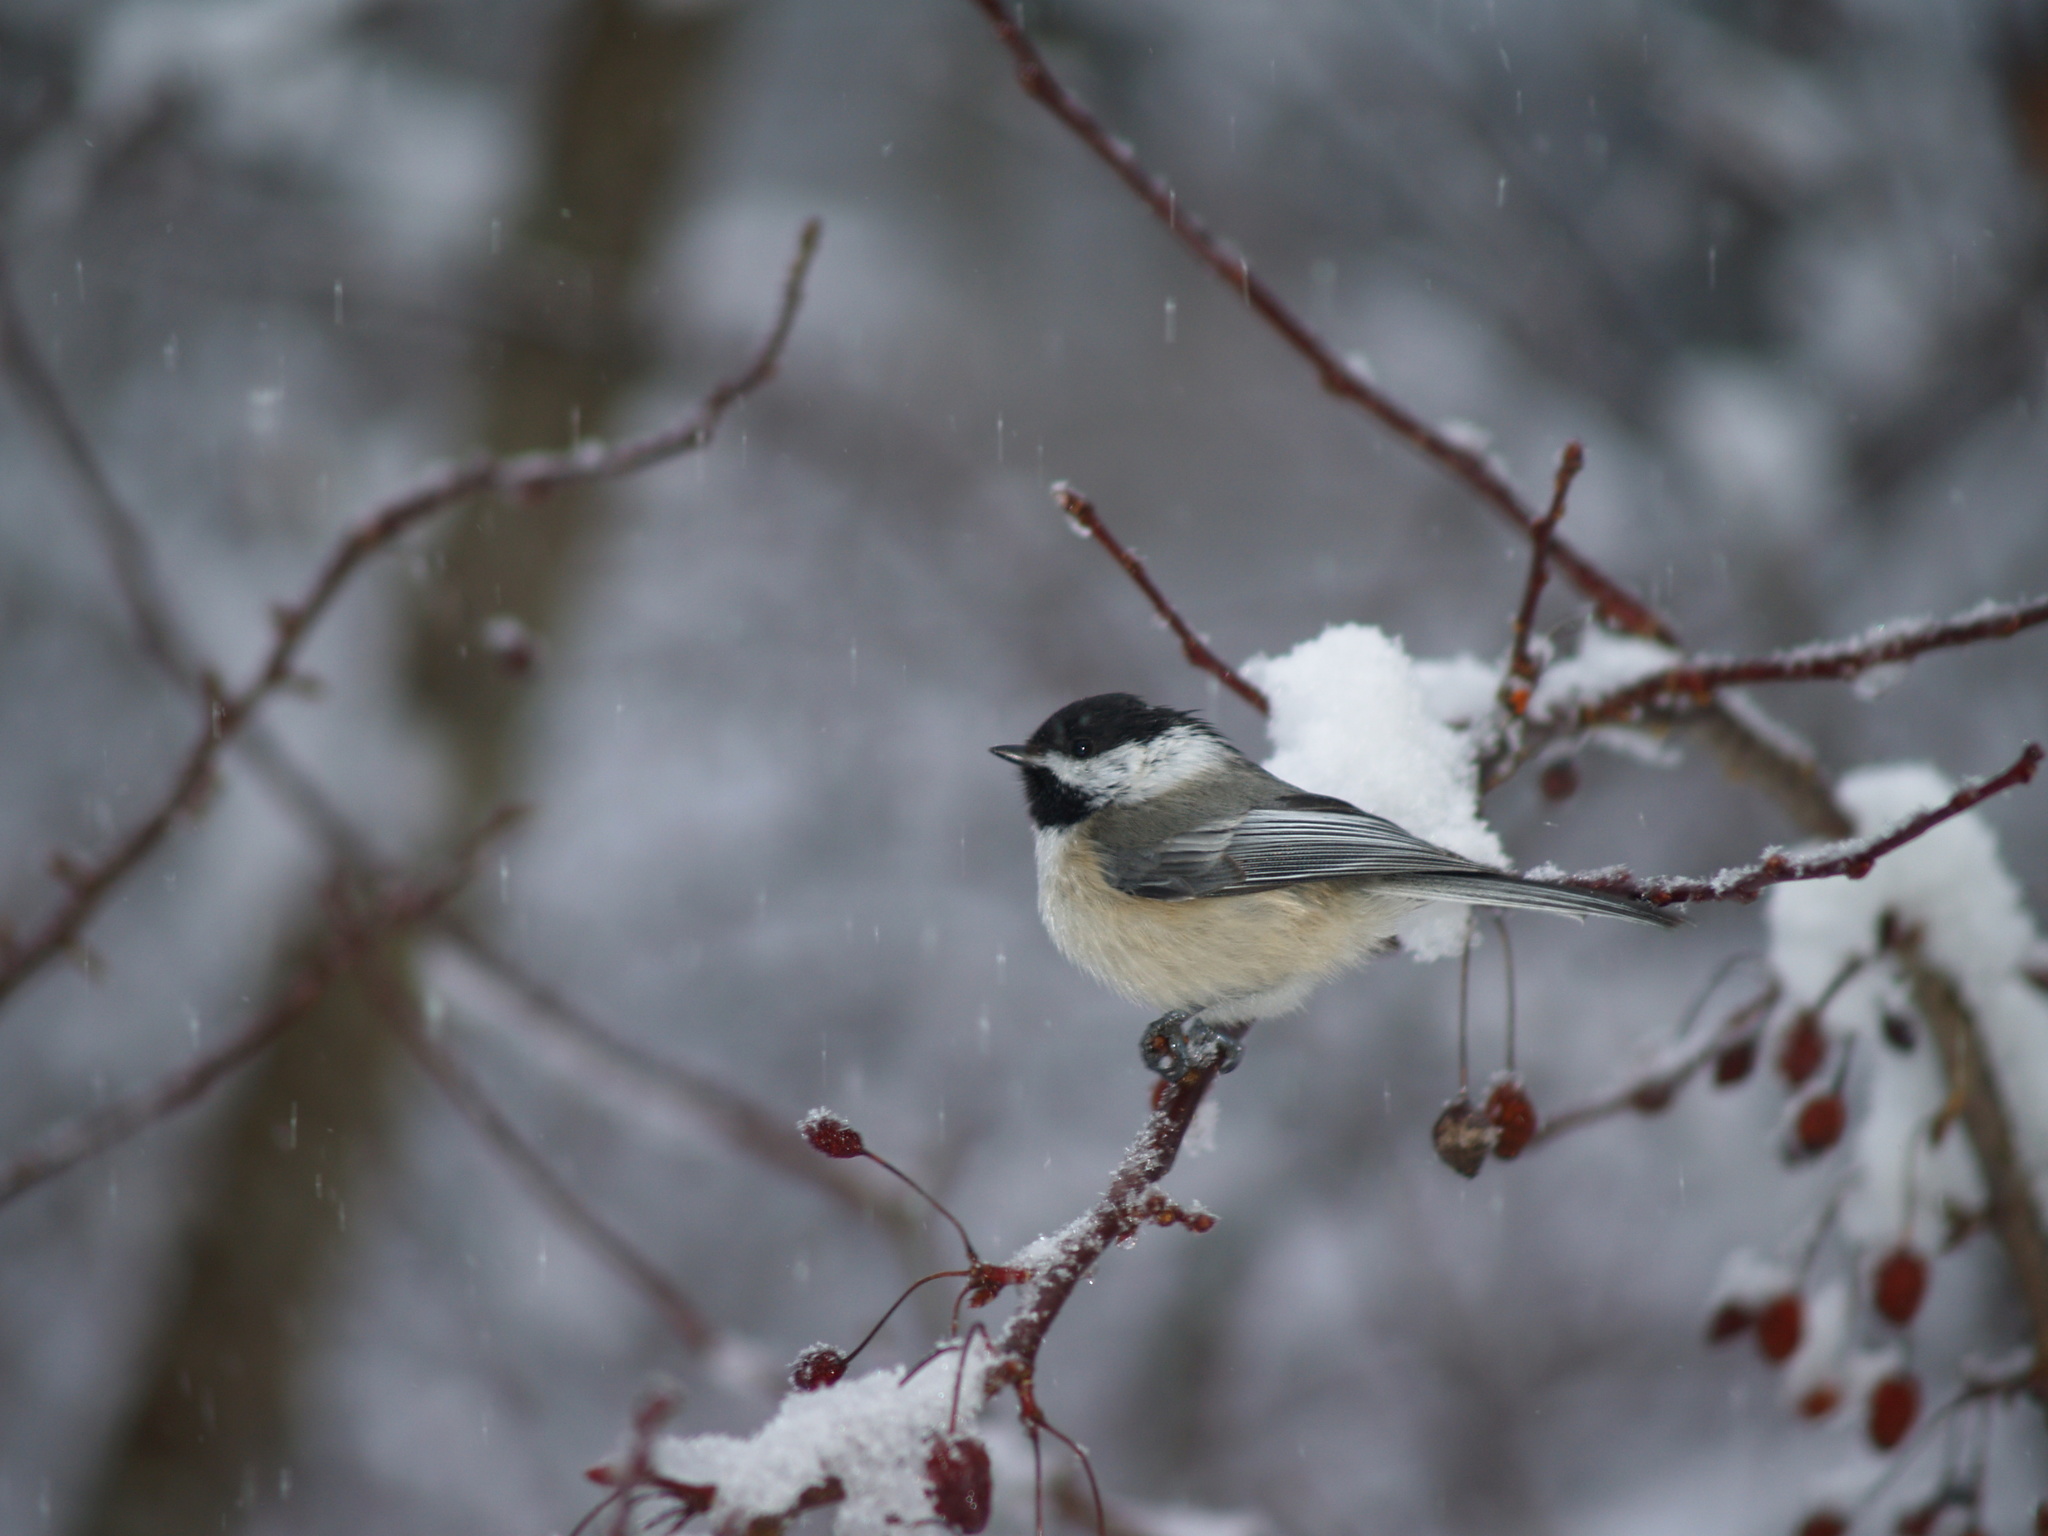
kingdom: Animalia
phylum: Chordata
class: Aves
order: Passeriformes
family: Paridae
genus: Poecile
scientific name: Poecile atricapillus
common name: Black-capped chickadee
